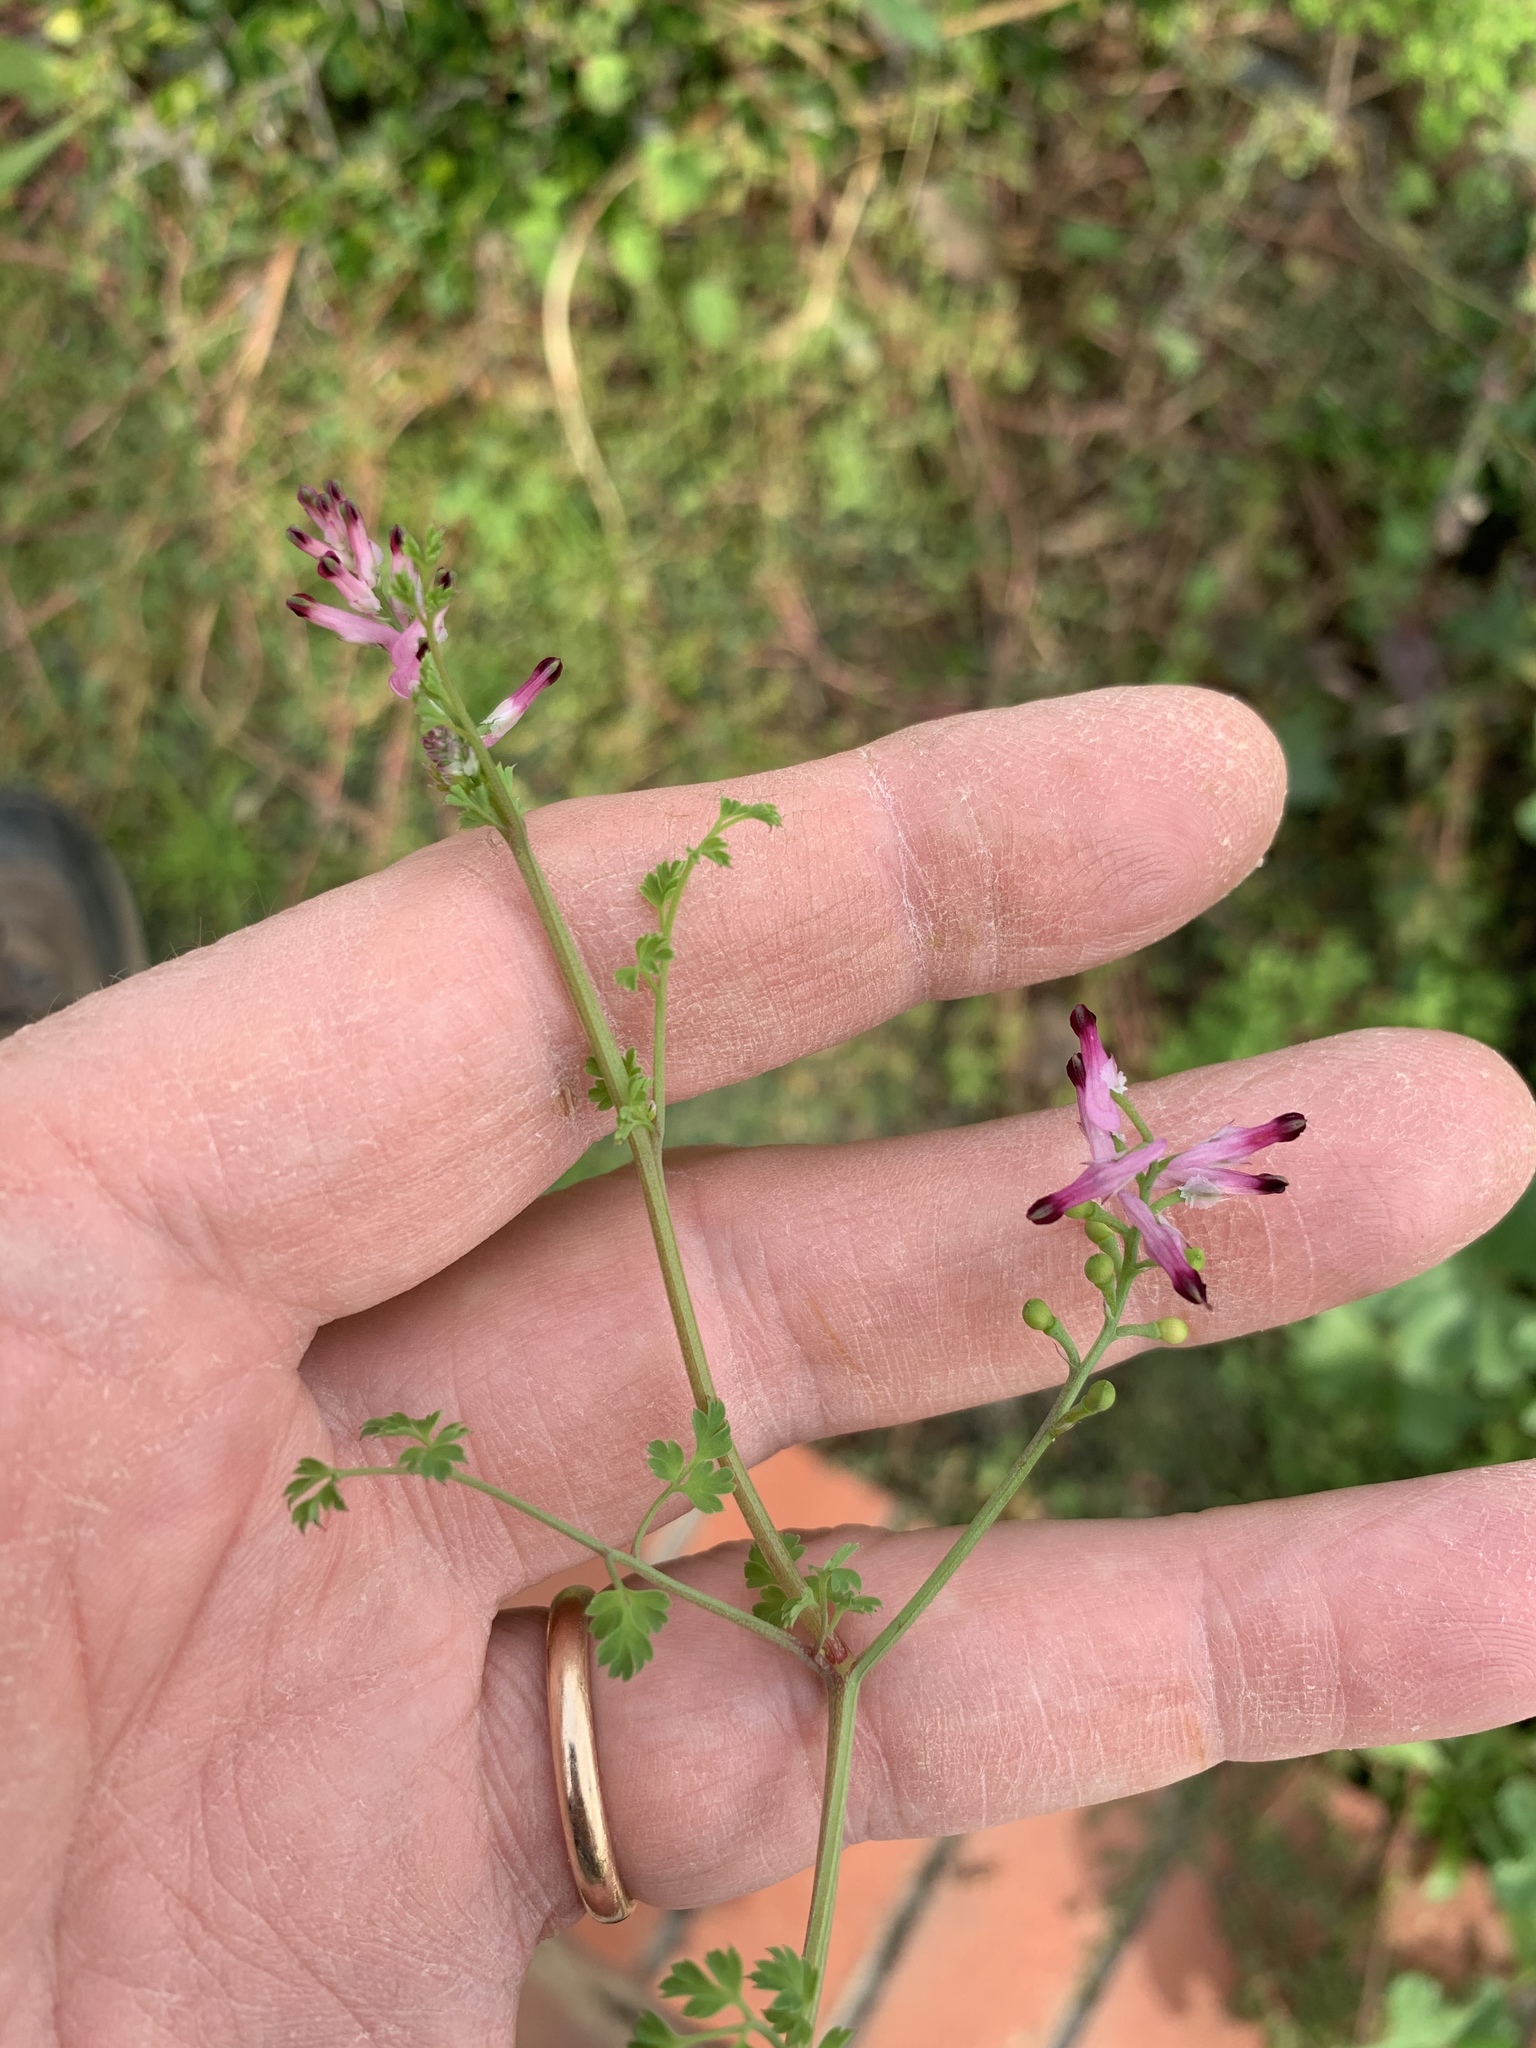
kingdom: Plantae
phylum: Tracheophyta
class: Magnoliopsida
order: Ranunculales
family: Papaveraceae
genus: Fumaria
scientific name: Fumaria muralis
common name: Common ramping-fumitory
